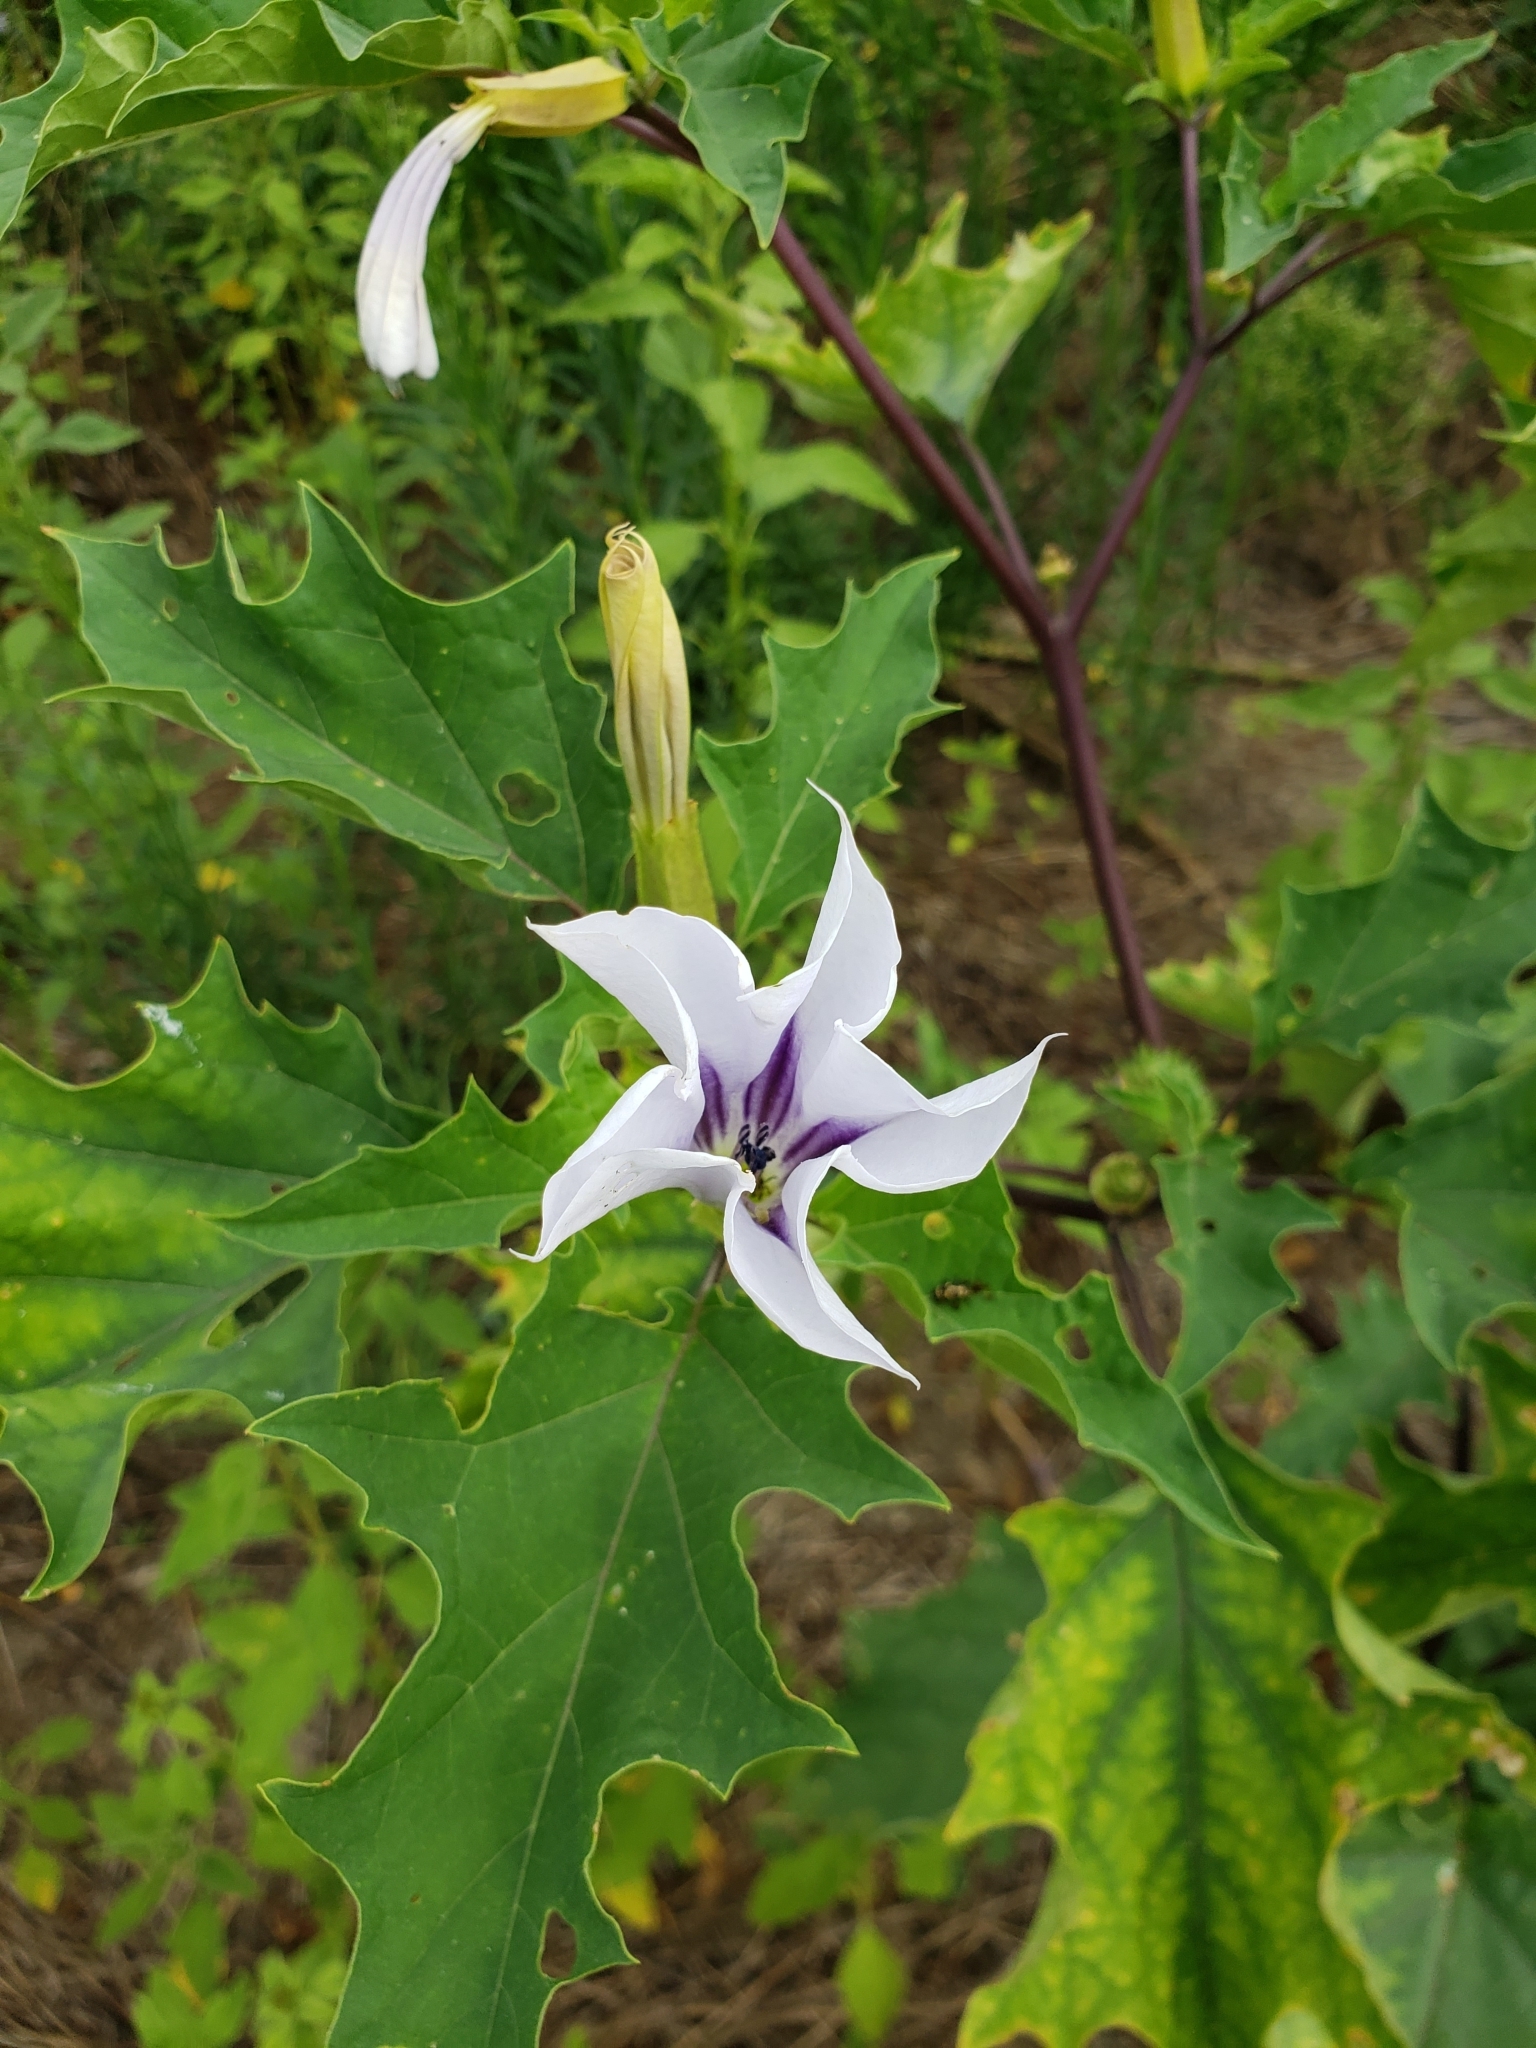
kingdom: Plantae
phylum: Tracheophyta
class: Magnoliopsida
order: Solanales
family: Solanaceae
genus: Datura
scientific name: Datura stramonium
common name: Thorn-apple
